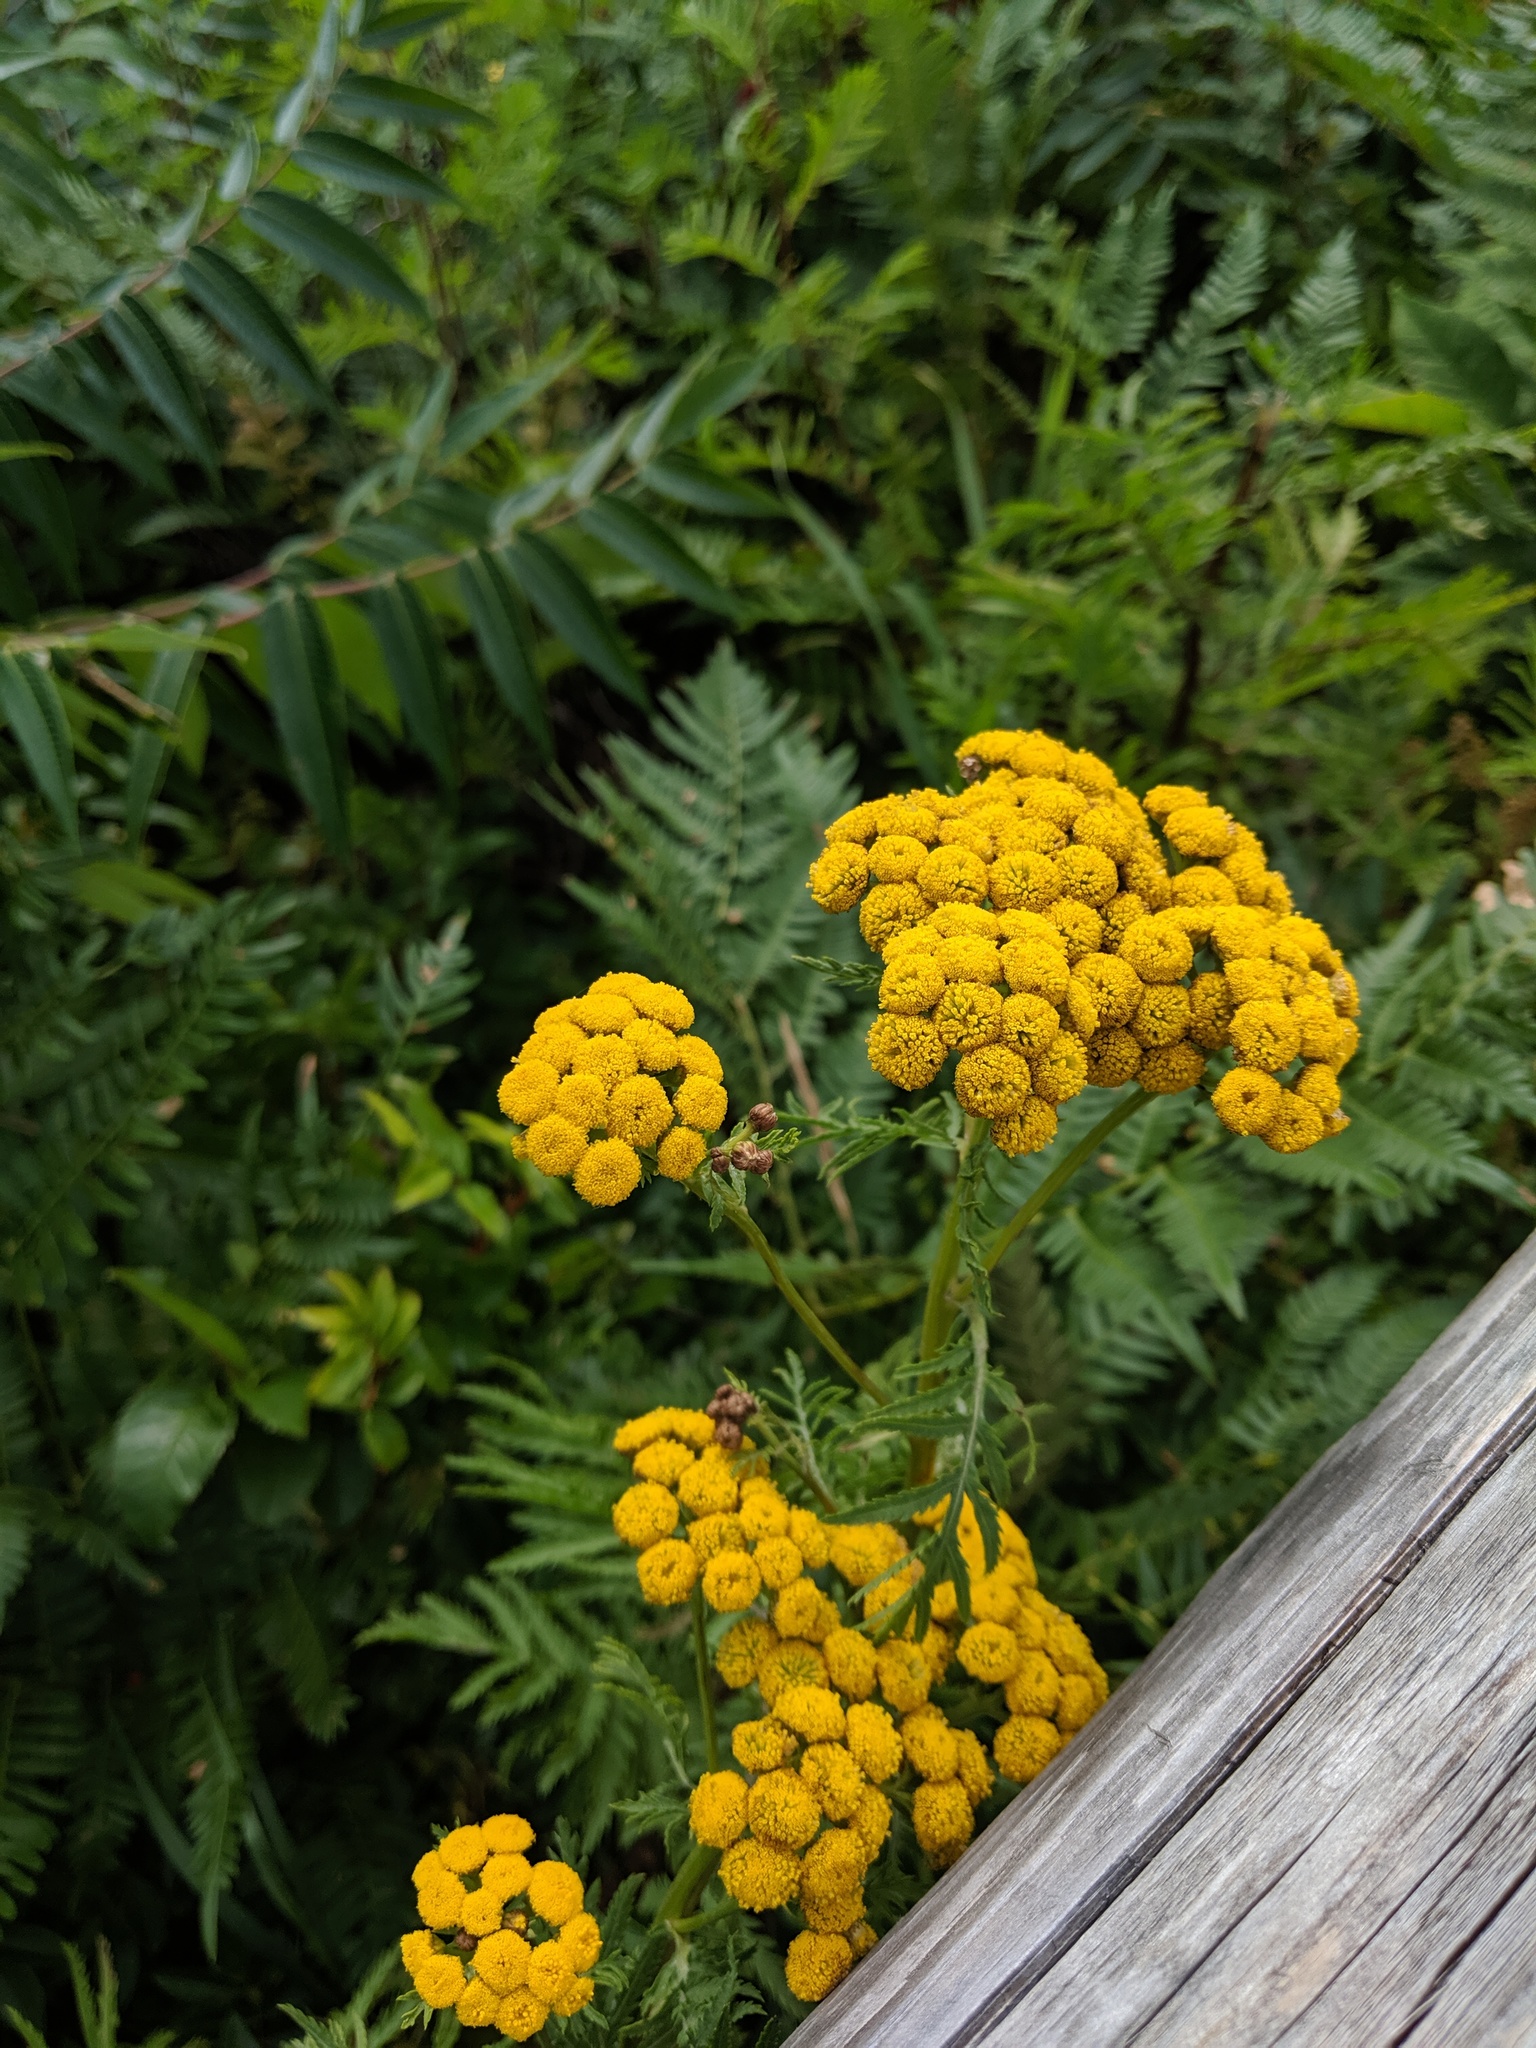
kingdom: Plantae
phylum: Tracheophyta
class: Magnoliopsida
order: Asterales
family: Asteraceae
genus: Tanacetum
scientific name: Tanacetum vulgare
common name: Common tansy
